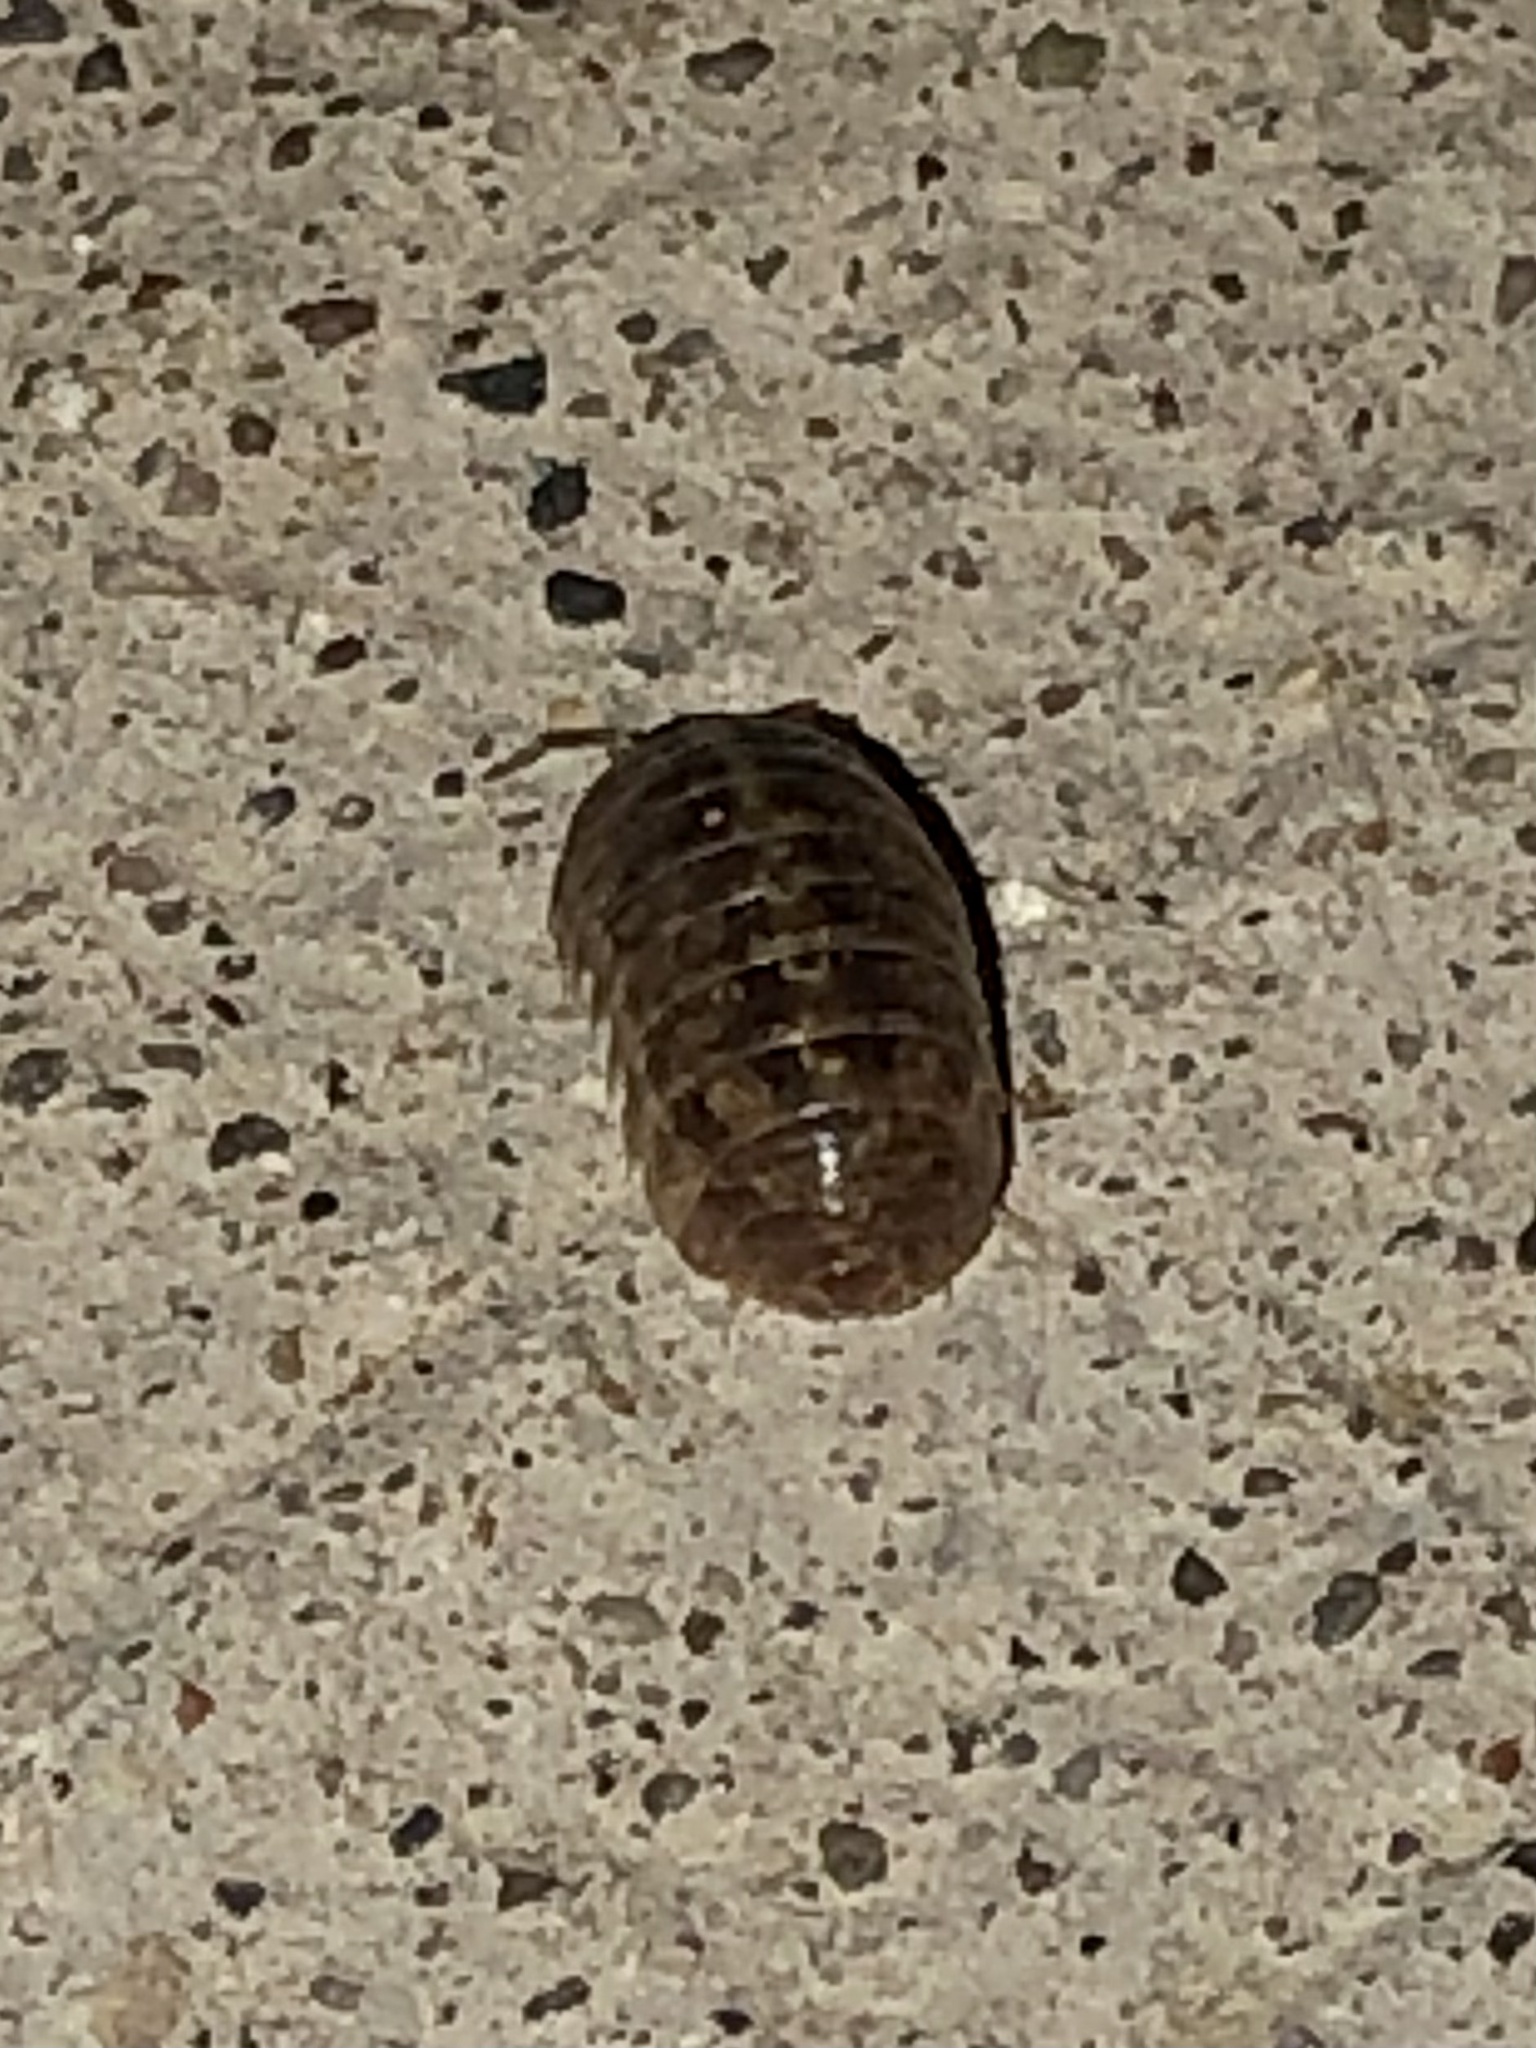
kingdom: Animalia
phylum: Arthropoda
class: Malacostraca
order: Isopoda
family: Armadillidiidae
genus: Armadillidium
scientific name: Armadillidium vulgare
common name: Common pill woodlouse
